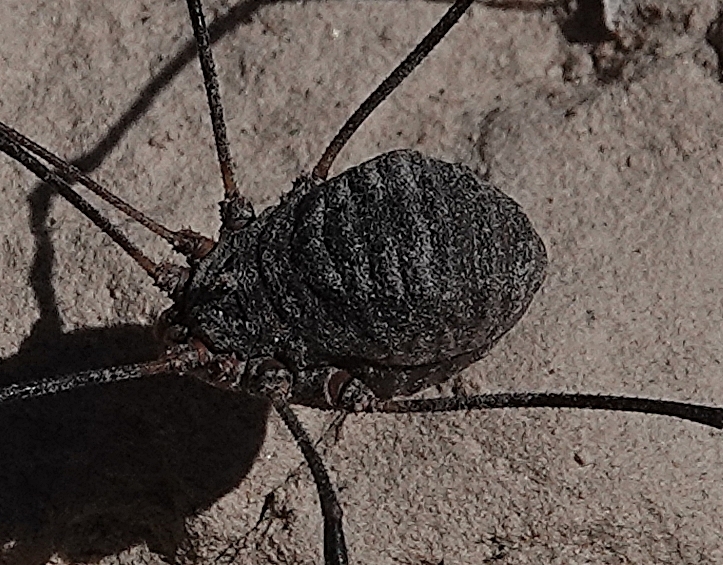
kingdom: Animalia
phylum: Arthropoda
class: Arachnida
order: Opiliones
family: Sclerosomatidae
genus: Trachyrhinus
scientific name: Trachyrhinus favosus
